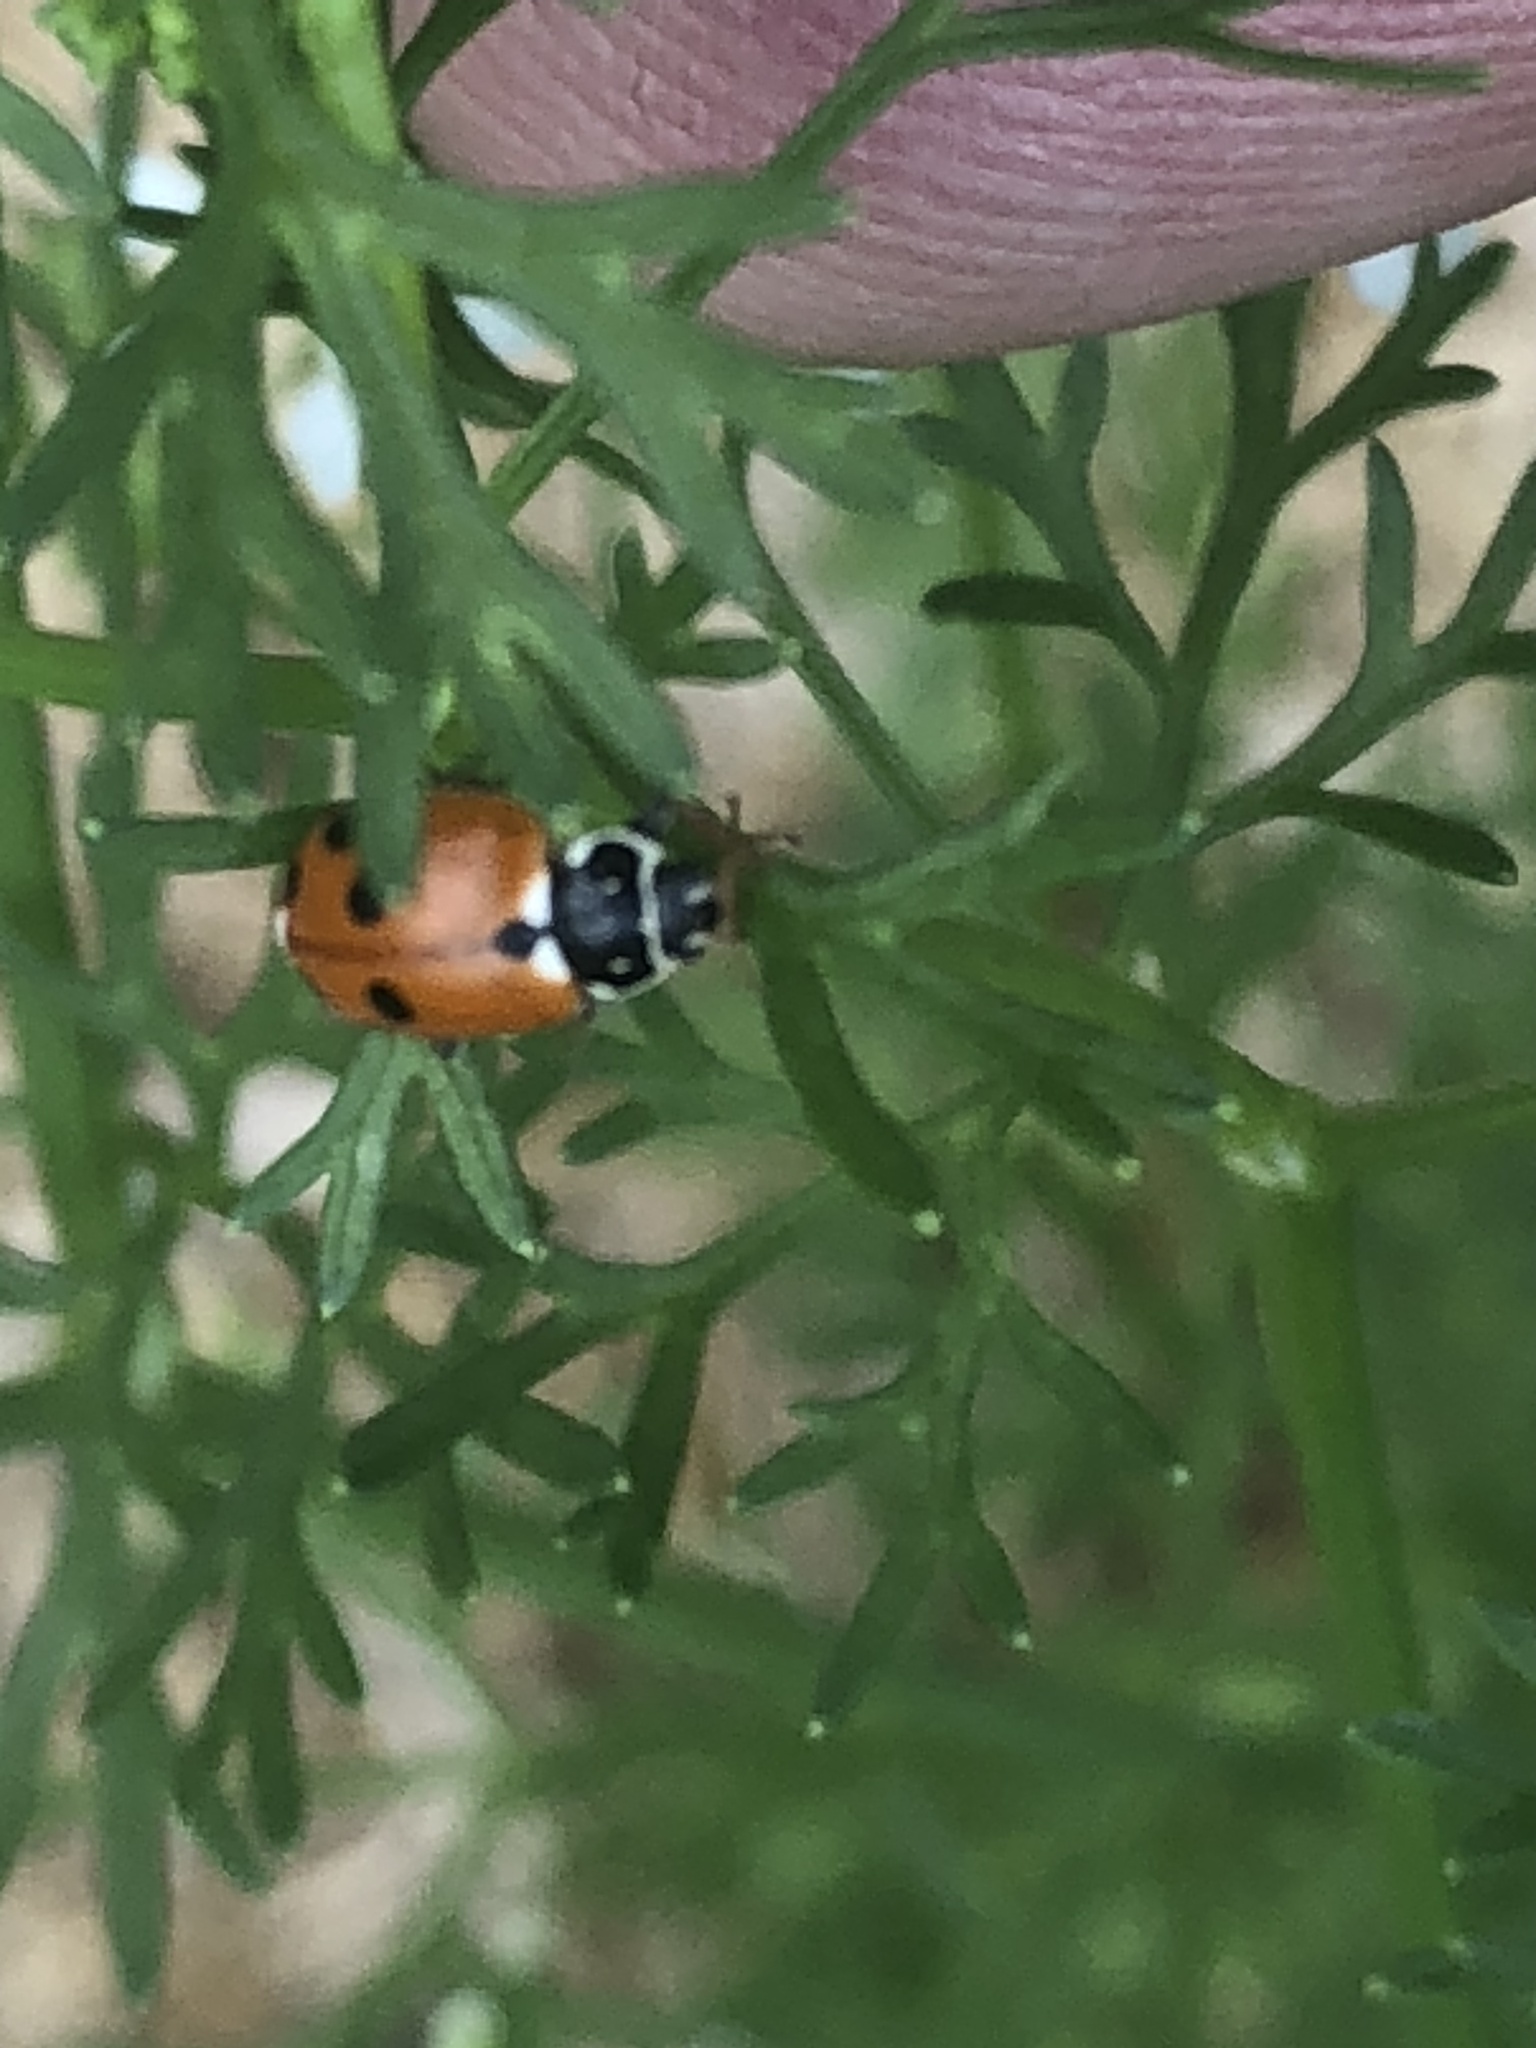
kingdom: Animalia
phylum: Arthropoda
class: Insecta
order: Coleoptera
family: Coccinellidae
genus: Hippodamia
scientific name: Hippodamia variegata
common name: Ladybird beetle
